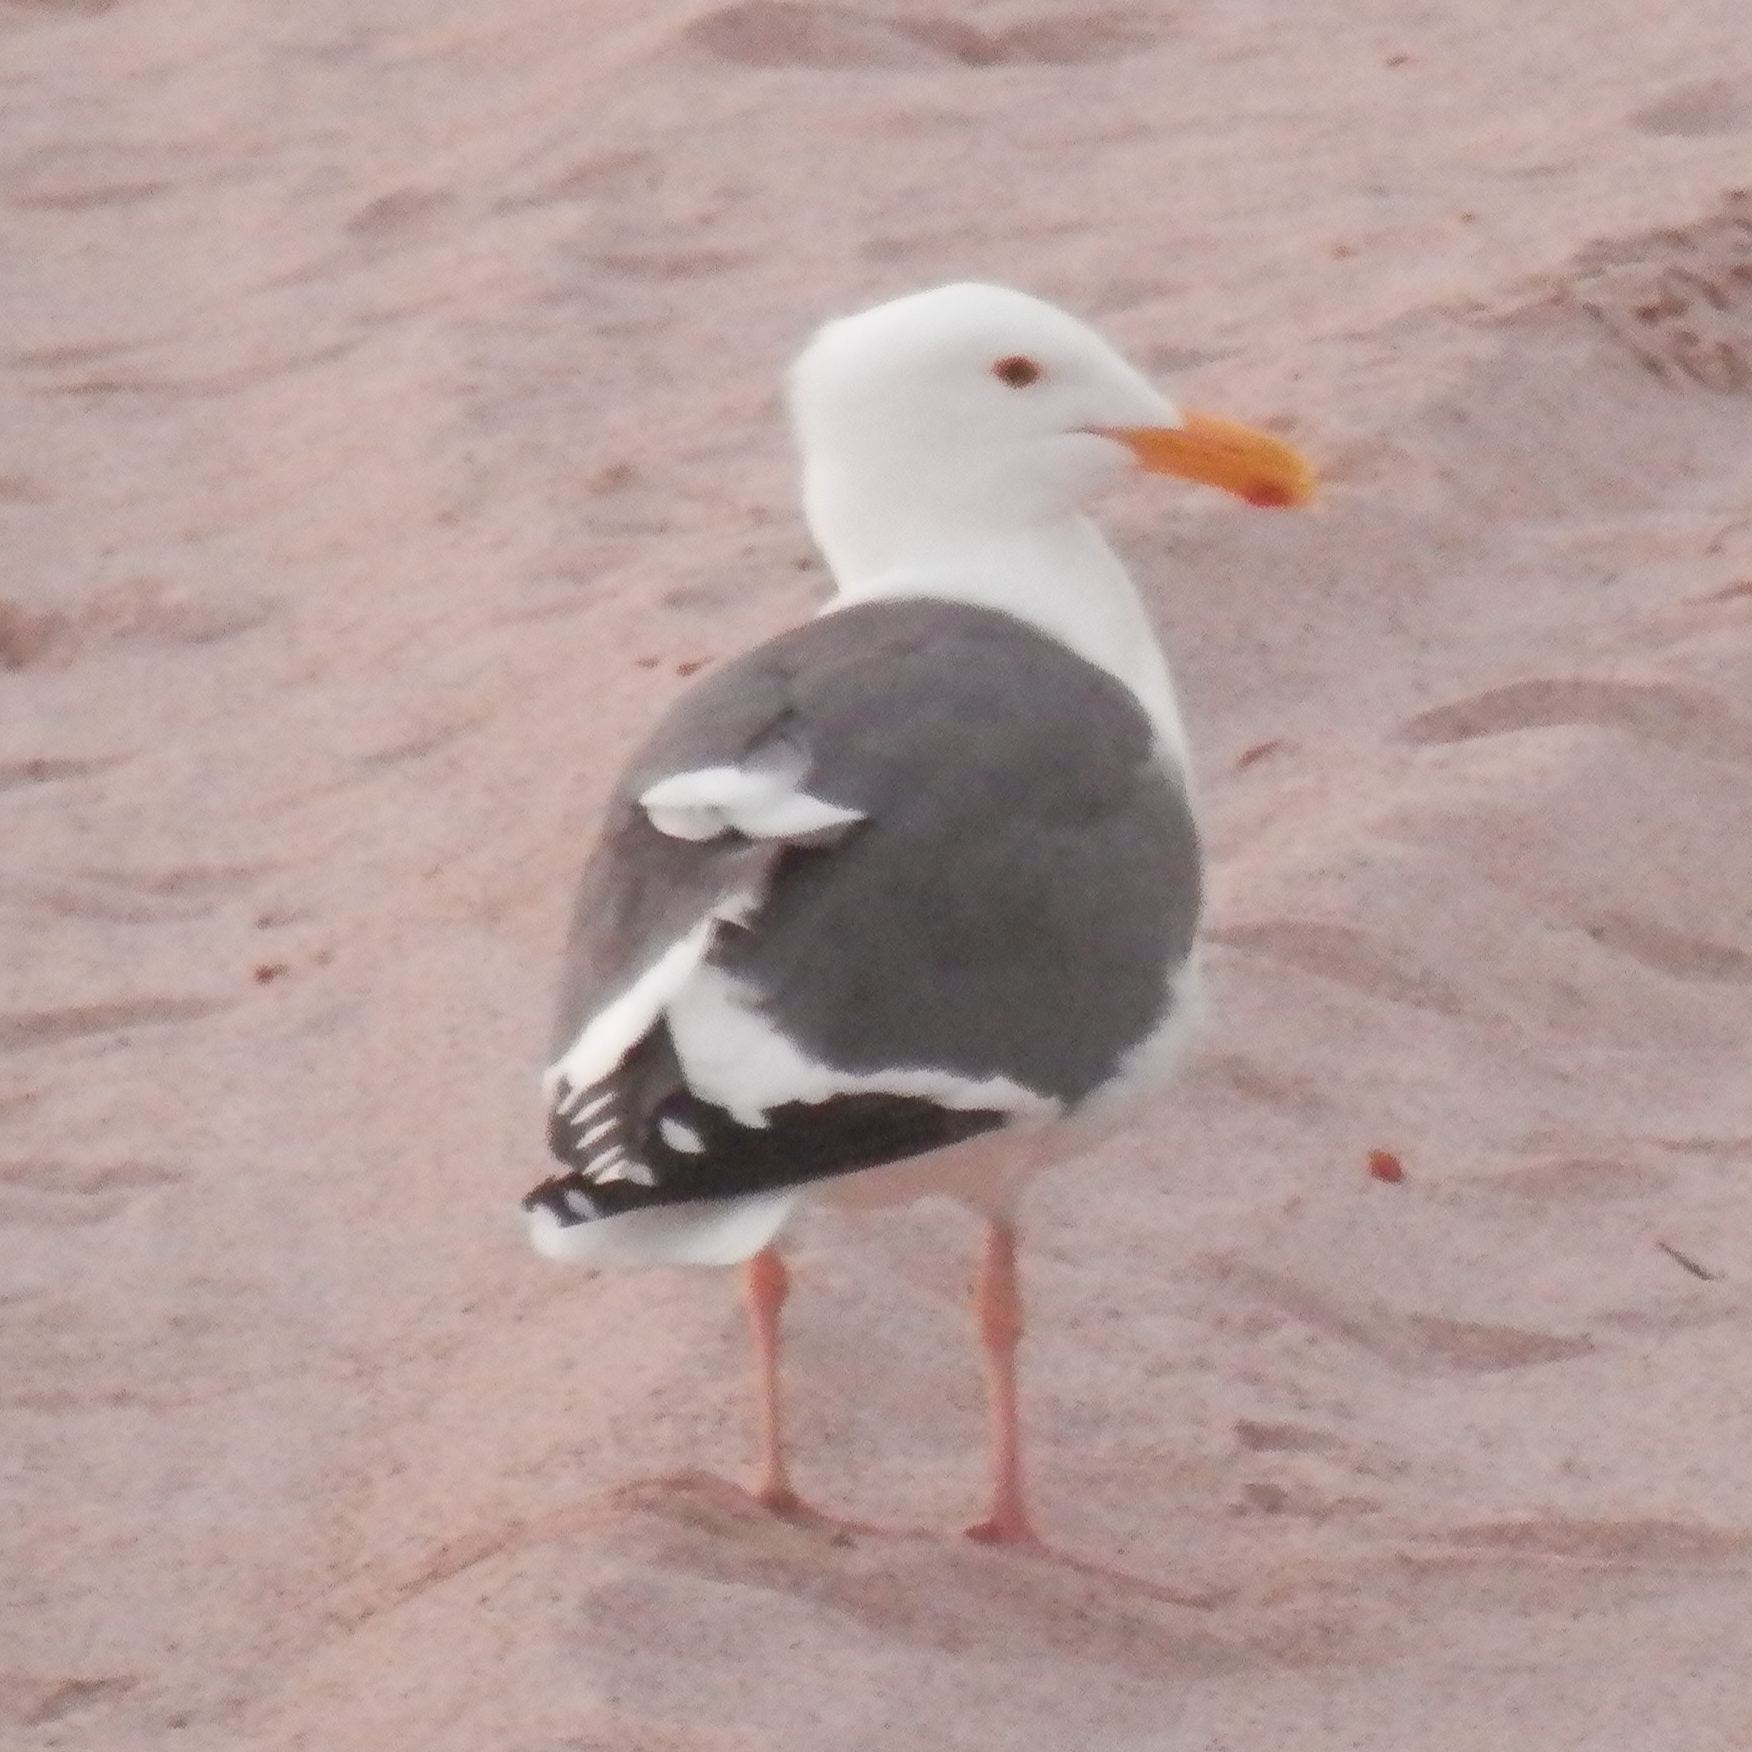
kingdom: Animalia
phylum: Chordata
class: Aves
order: Charadriiformes
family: Laridae
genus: Larus
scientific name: Larus occidentalis
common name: Western gull
